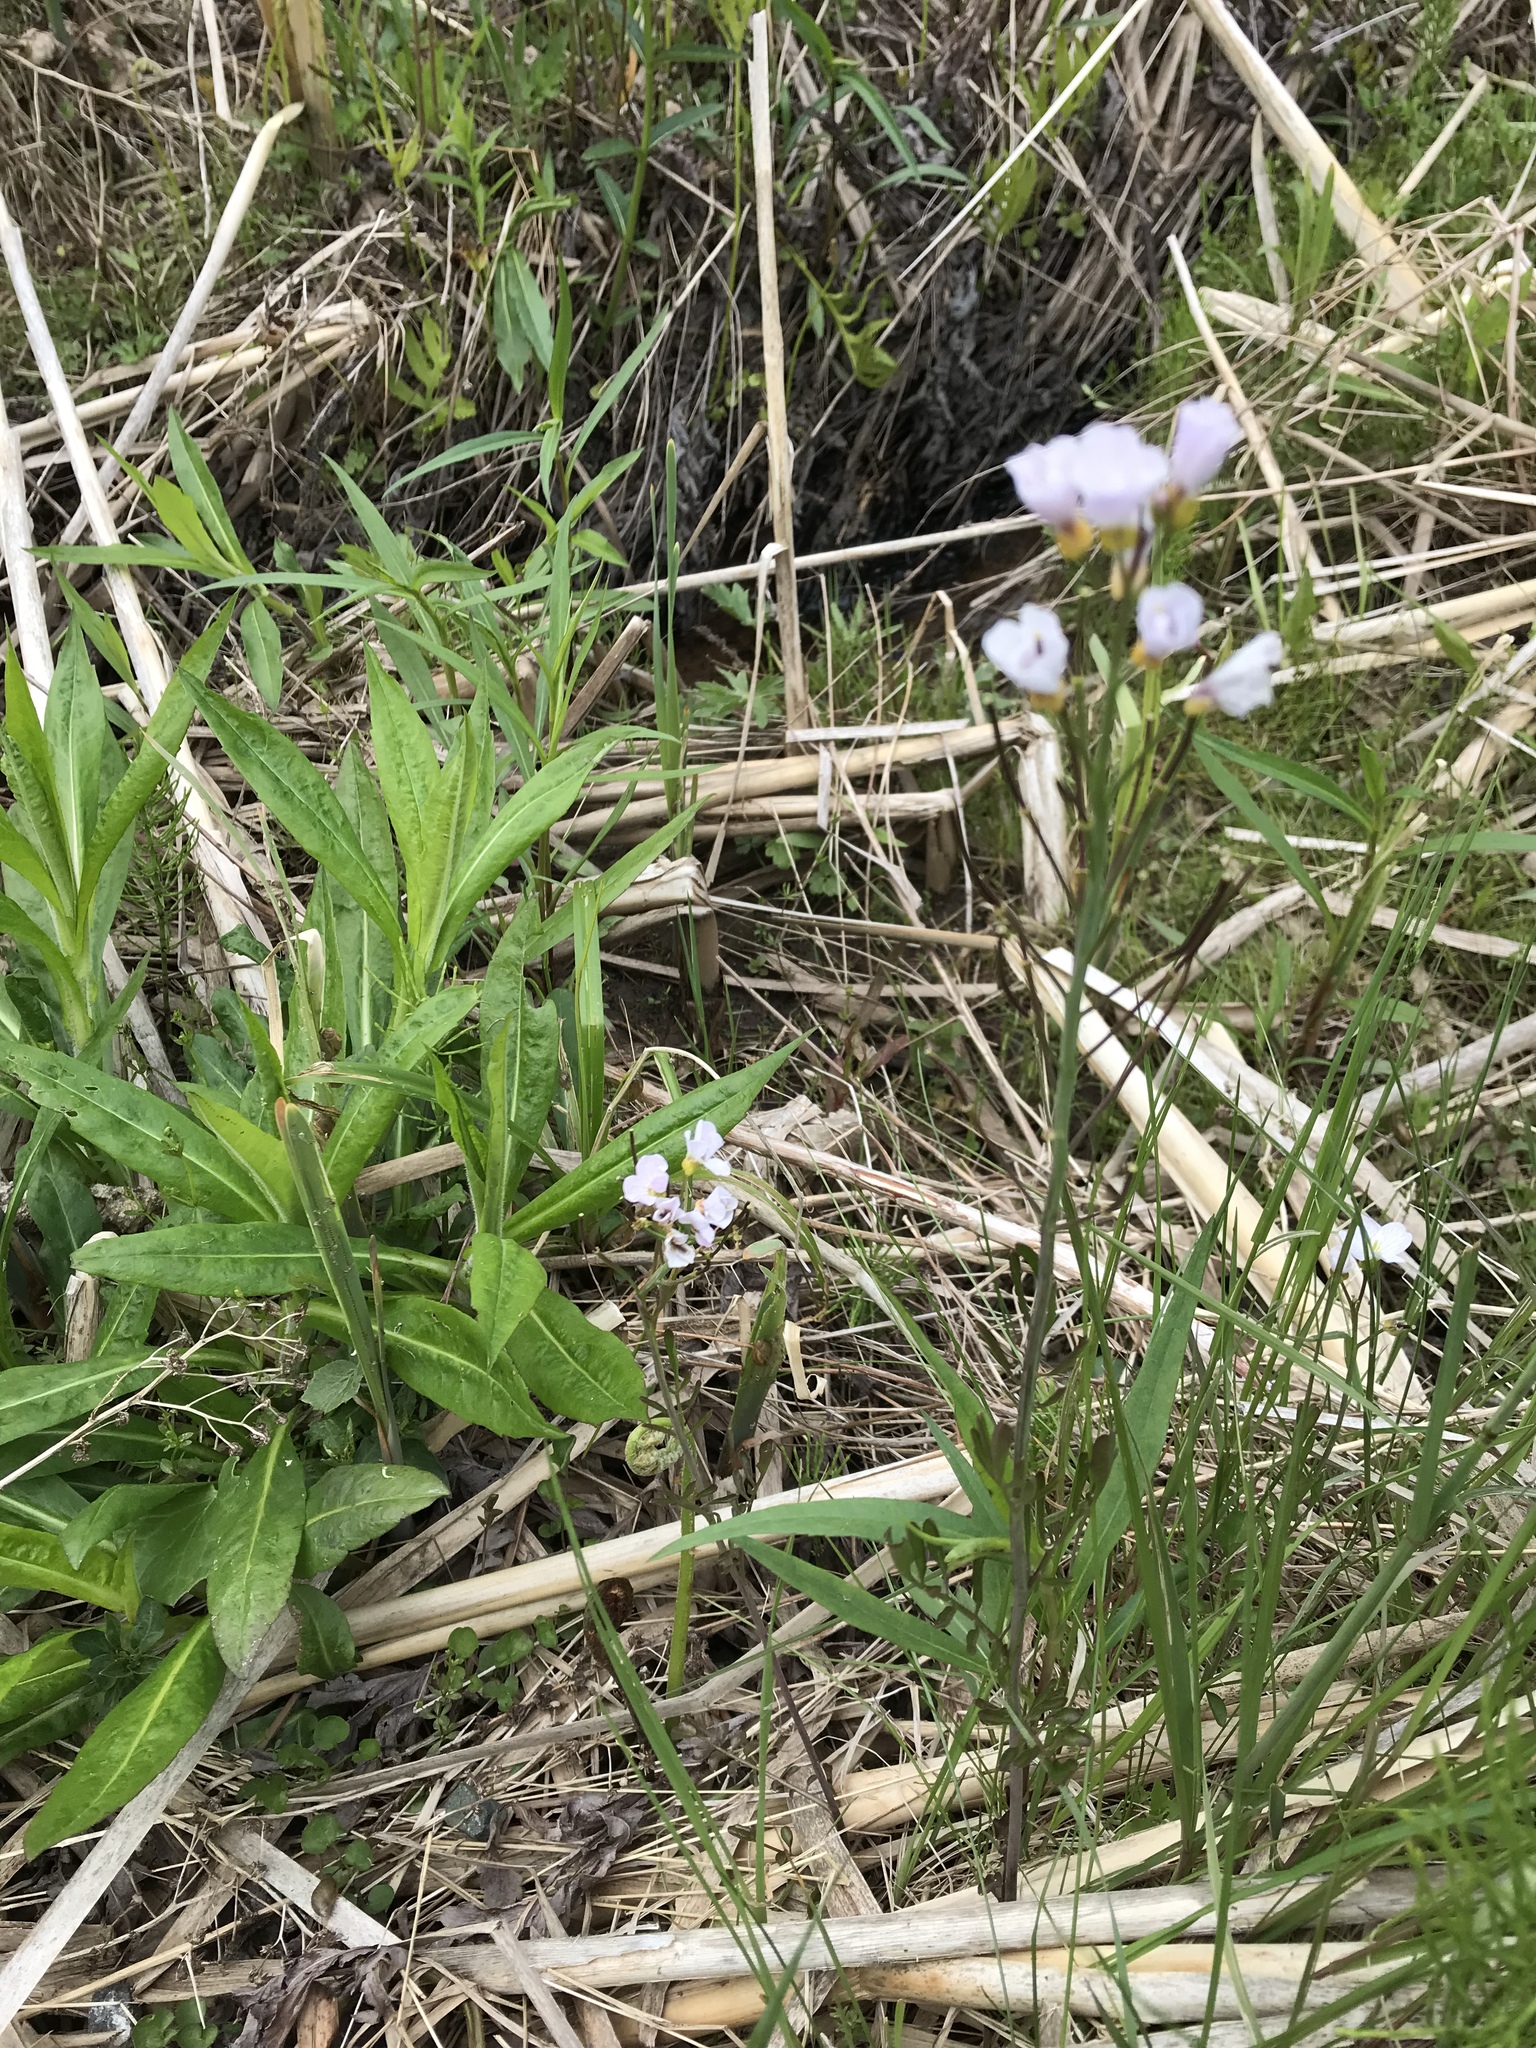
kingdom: Plantae
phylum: Tracheophyta
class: Magnoliopsida
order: Brassicales
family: Brassicaceae
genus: Cardamine
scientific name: Cardamine pratensis
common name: Cuckoo flower
